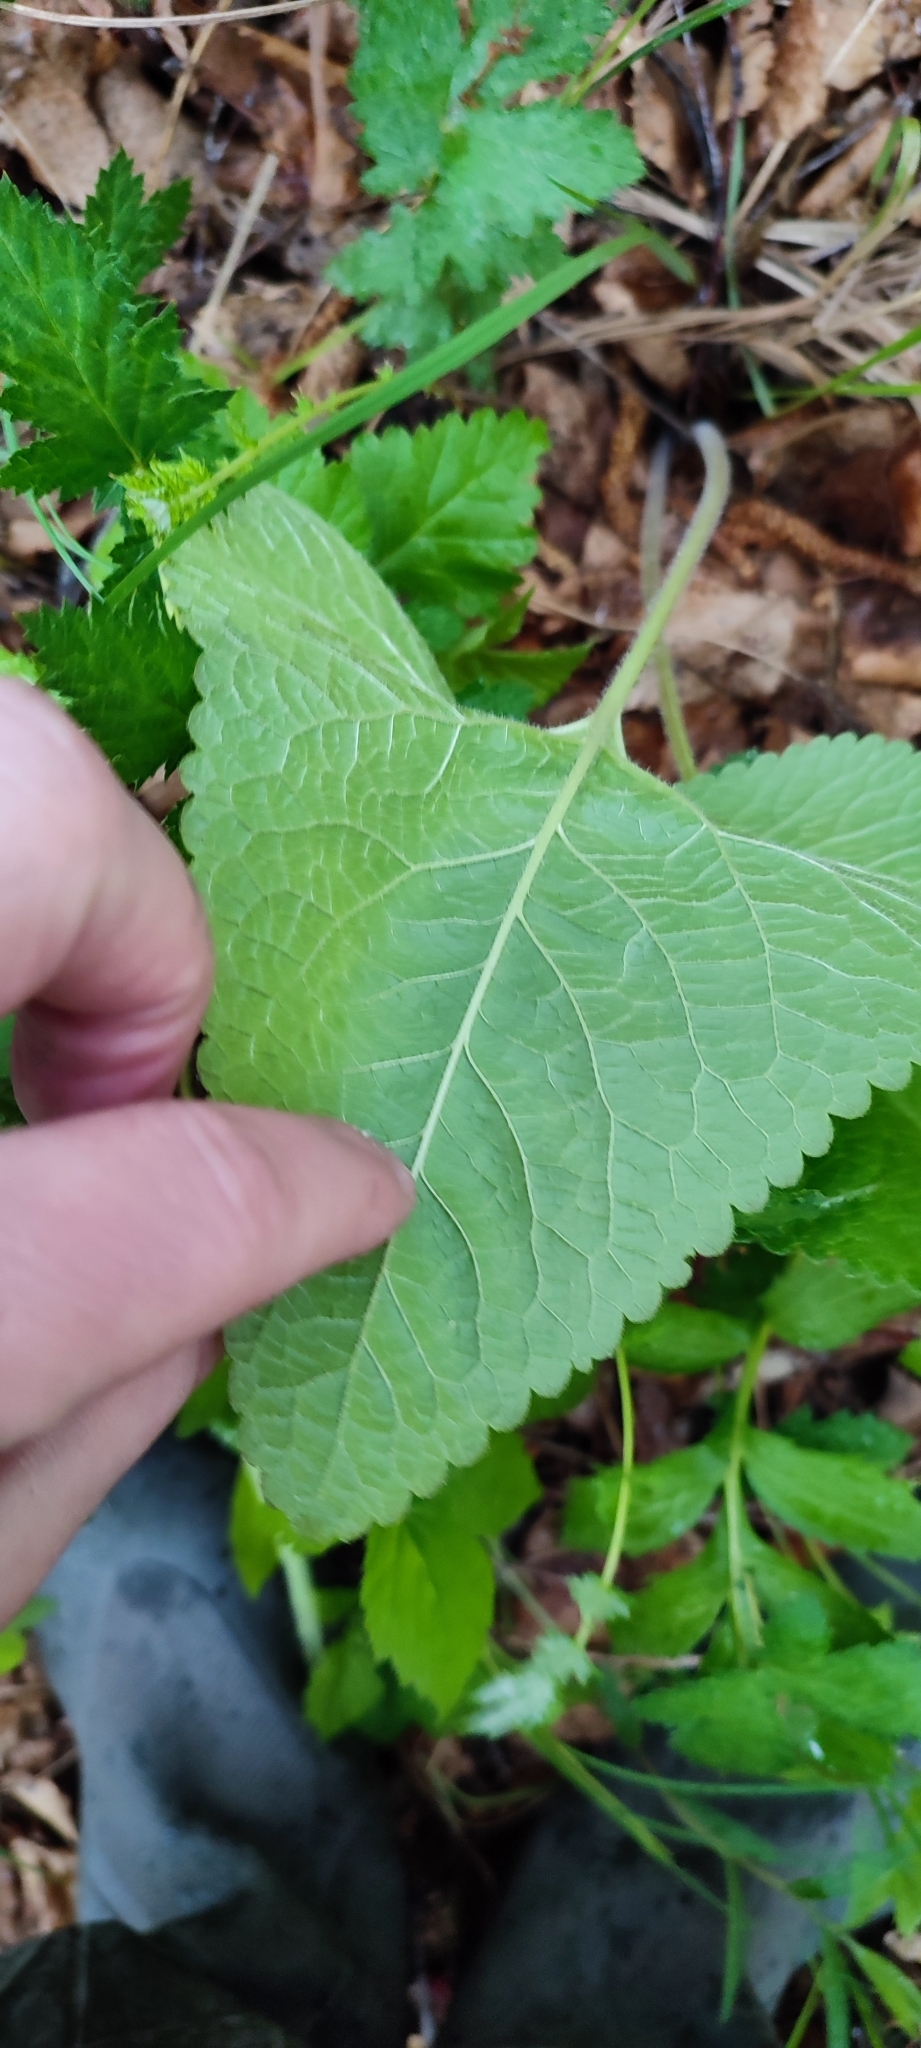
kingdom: Plantae
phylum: Tracheophyta
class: Magnoliopsida
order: Lamiales
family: Lamiaceae
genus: Phlomoides
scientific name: Phlomoides tuberosa
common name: Tuberous jerusalem sage
